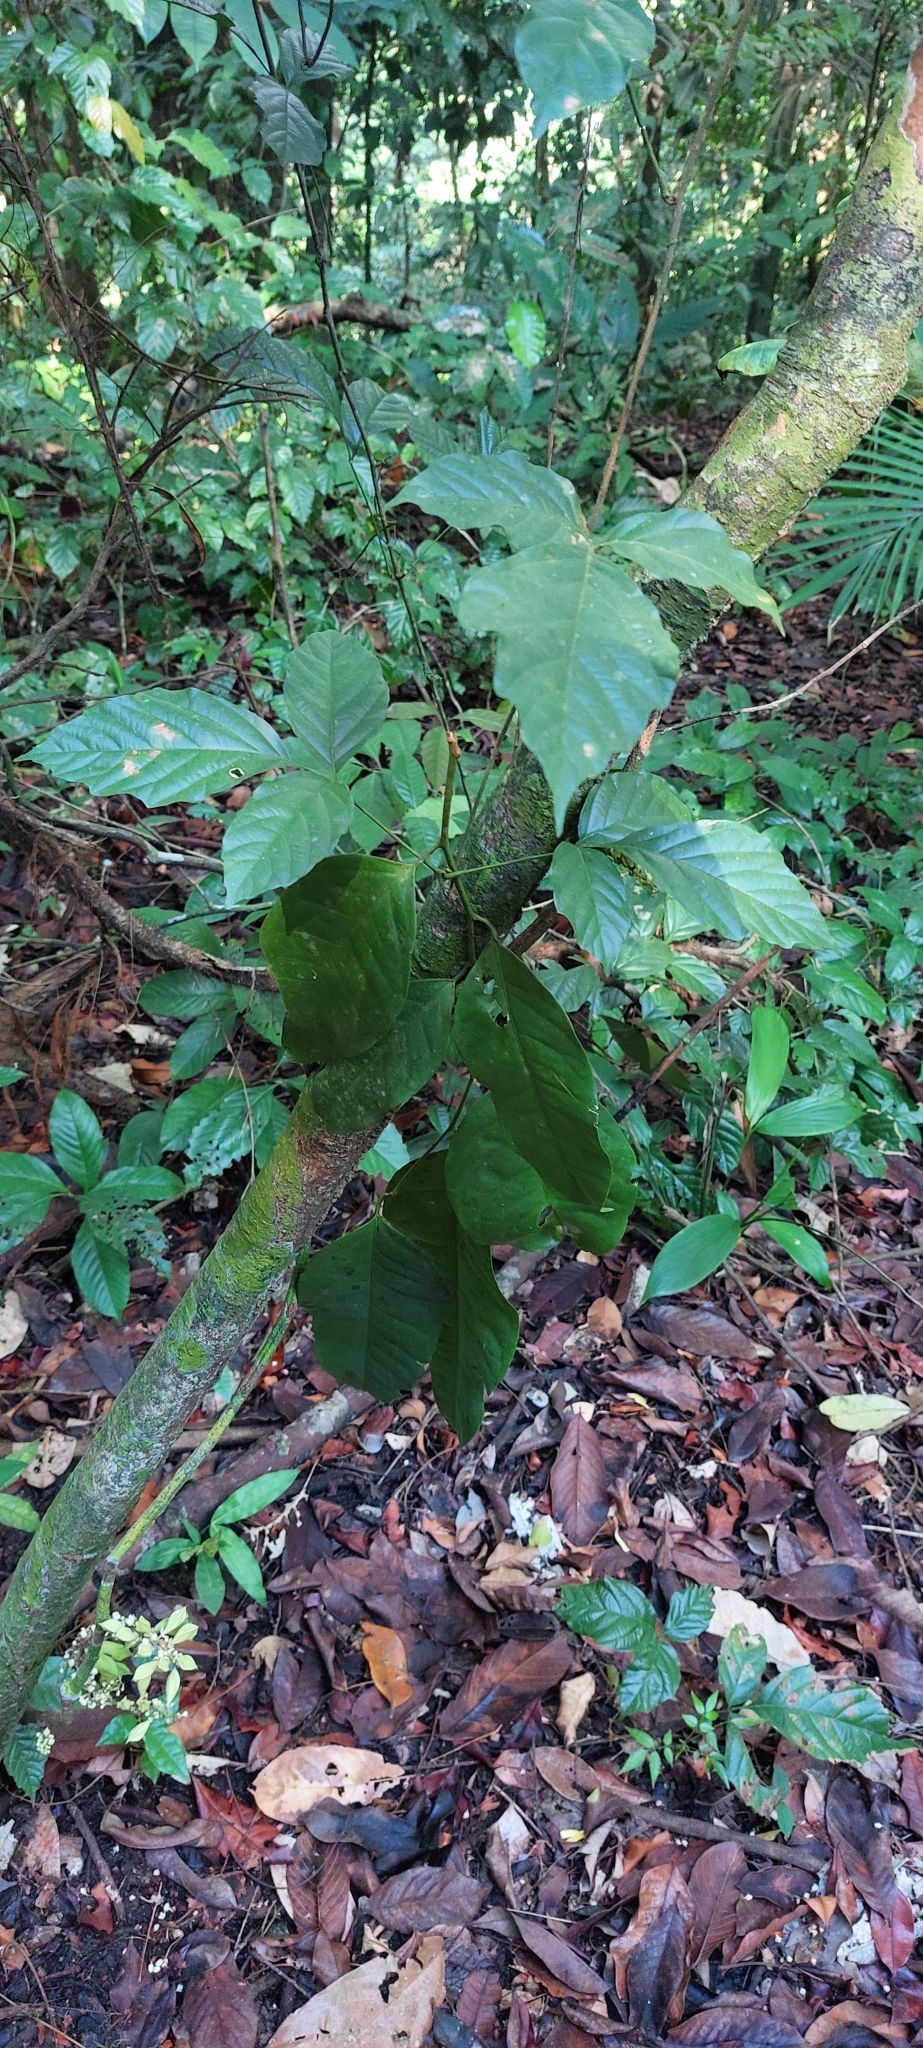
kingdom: Plantae
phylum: Tracheophyta
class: Magnoliopsida
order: Sapindales
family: Sapindaceae
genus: Paullinia
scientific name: Paullinia turbacensis
